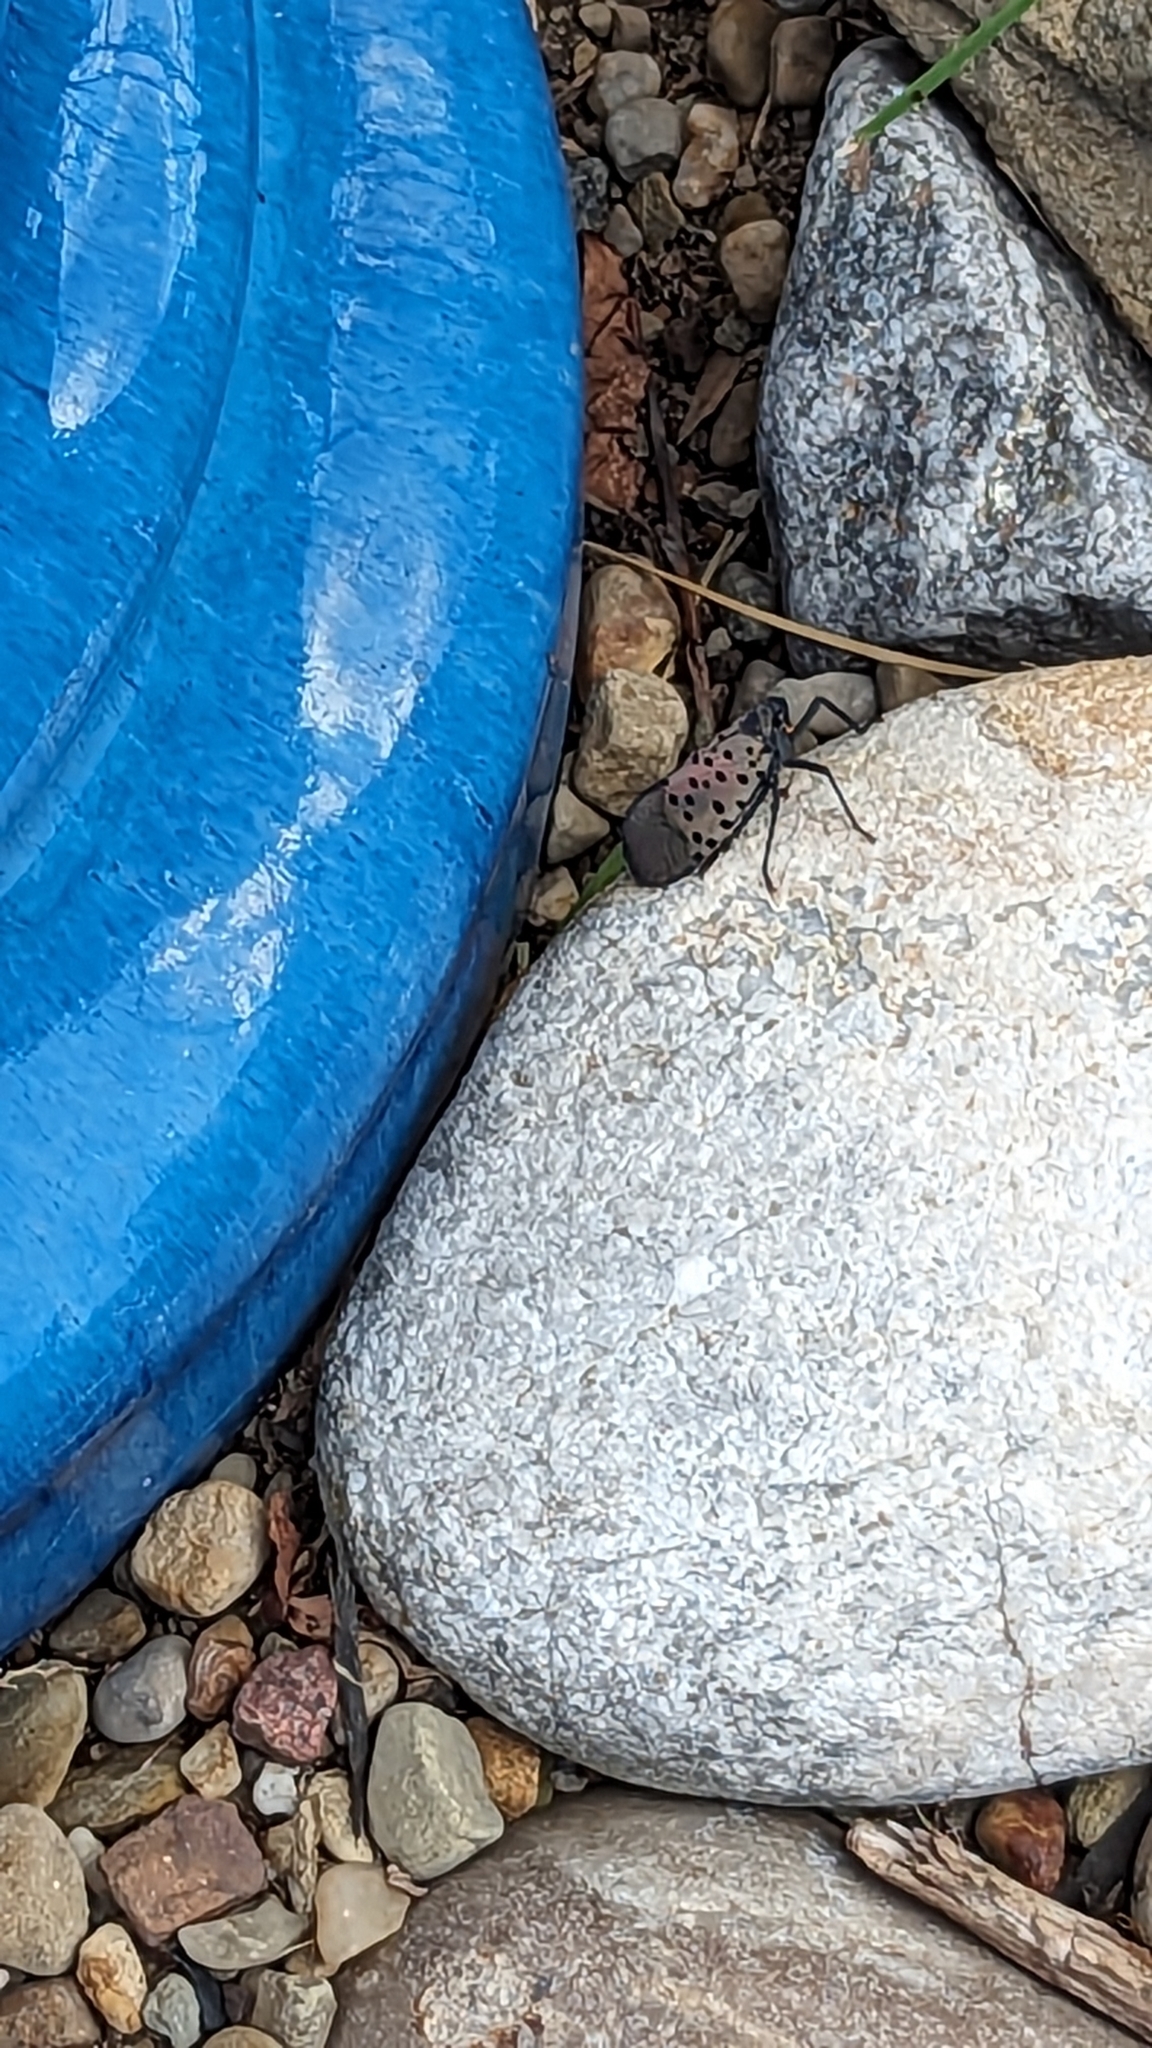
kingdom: Animalia
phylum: Arthropoda
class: Insecta
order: Hemiptera
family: Fulgoridae
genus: Lycorma
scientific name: Lycorma delicatula
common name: Spotted lanternfly
